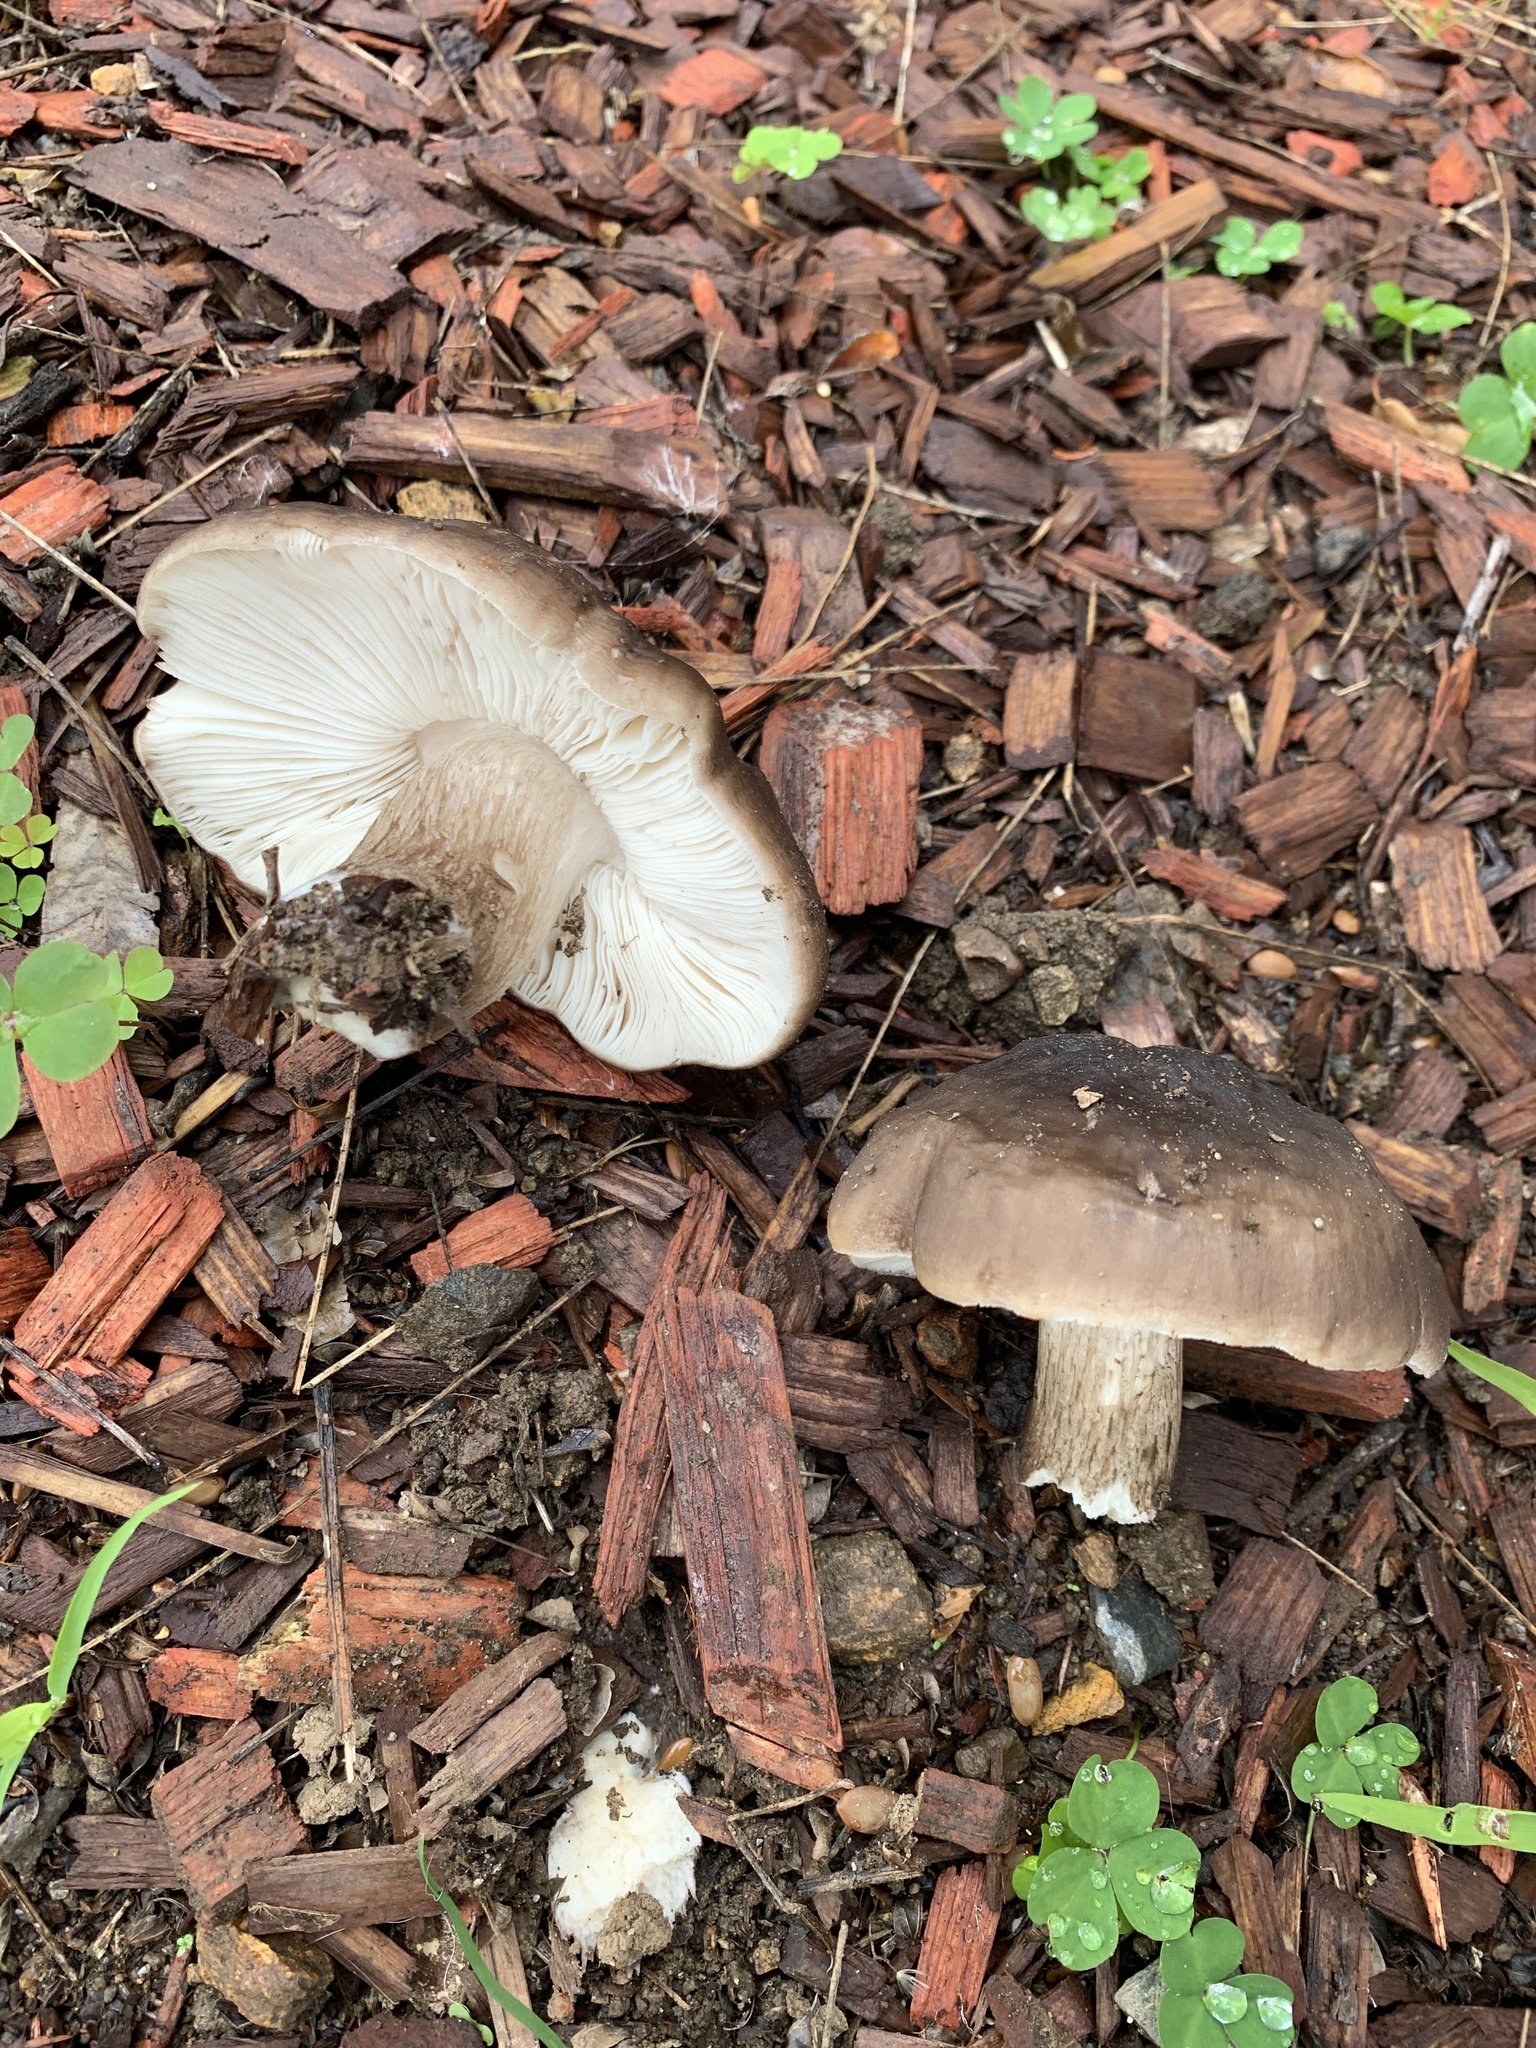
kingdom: Fungi
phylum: Basidiomycota
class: Agaricomycetes
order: Agaricales
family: Pluteaceae
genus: Pluteus
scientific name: Pluteus exilis
